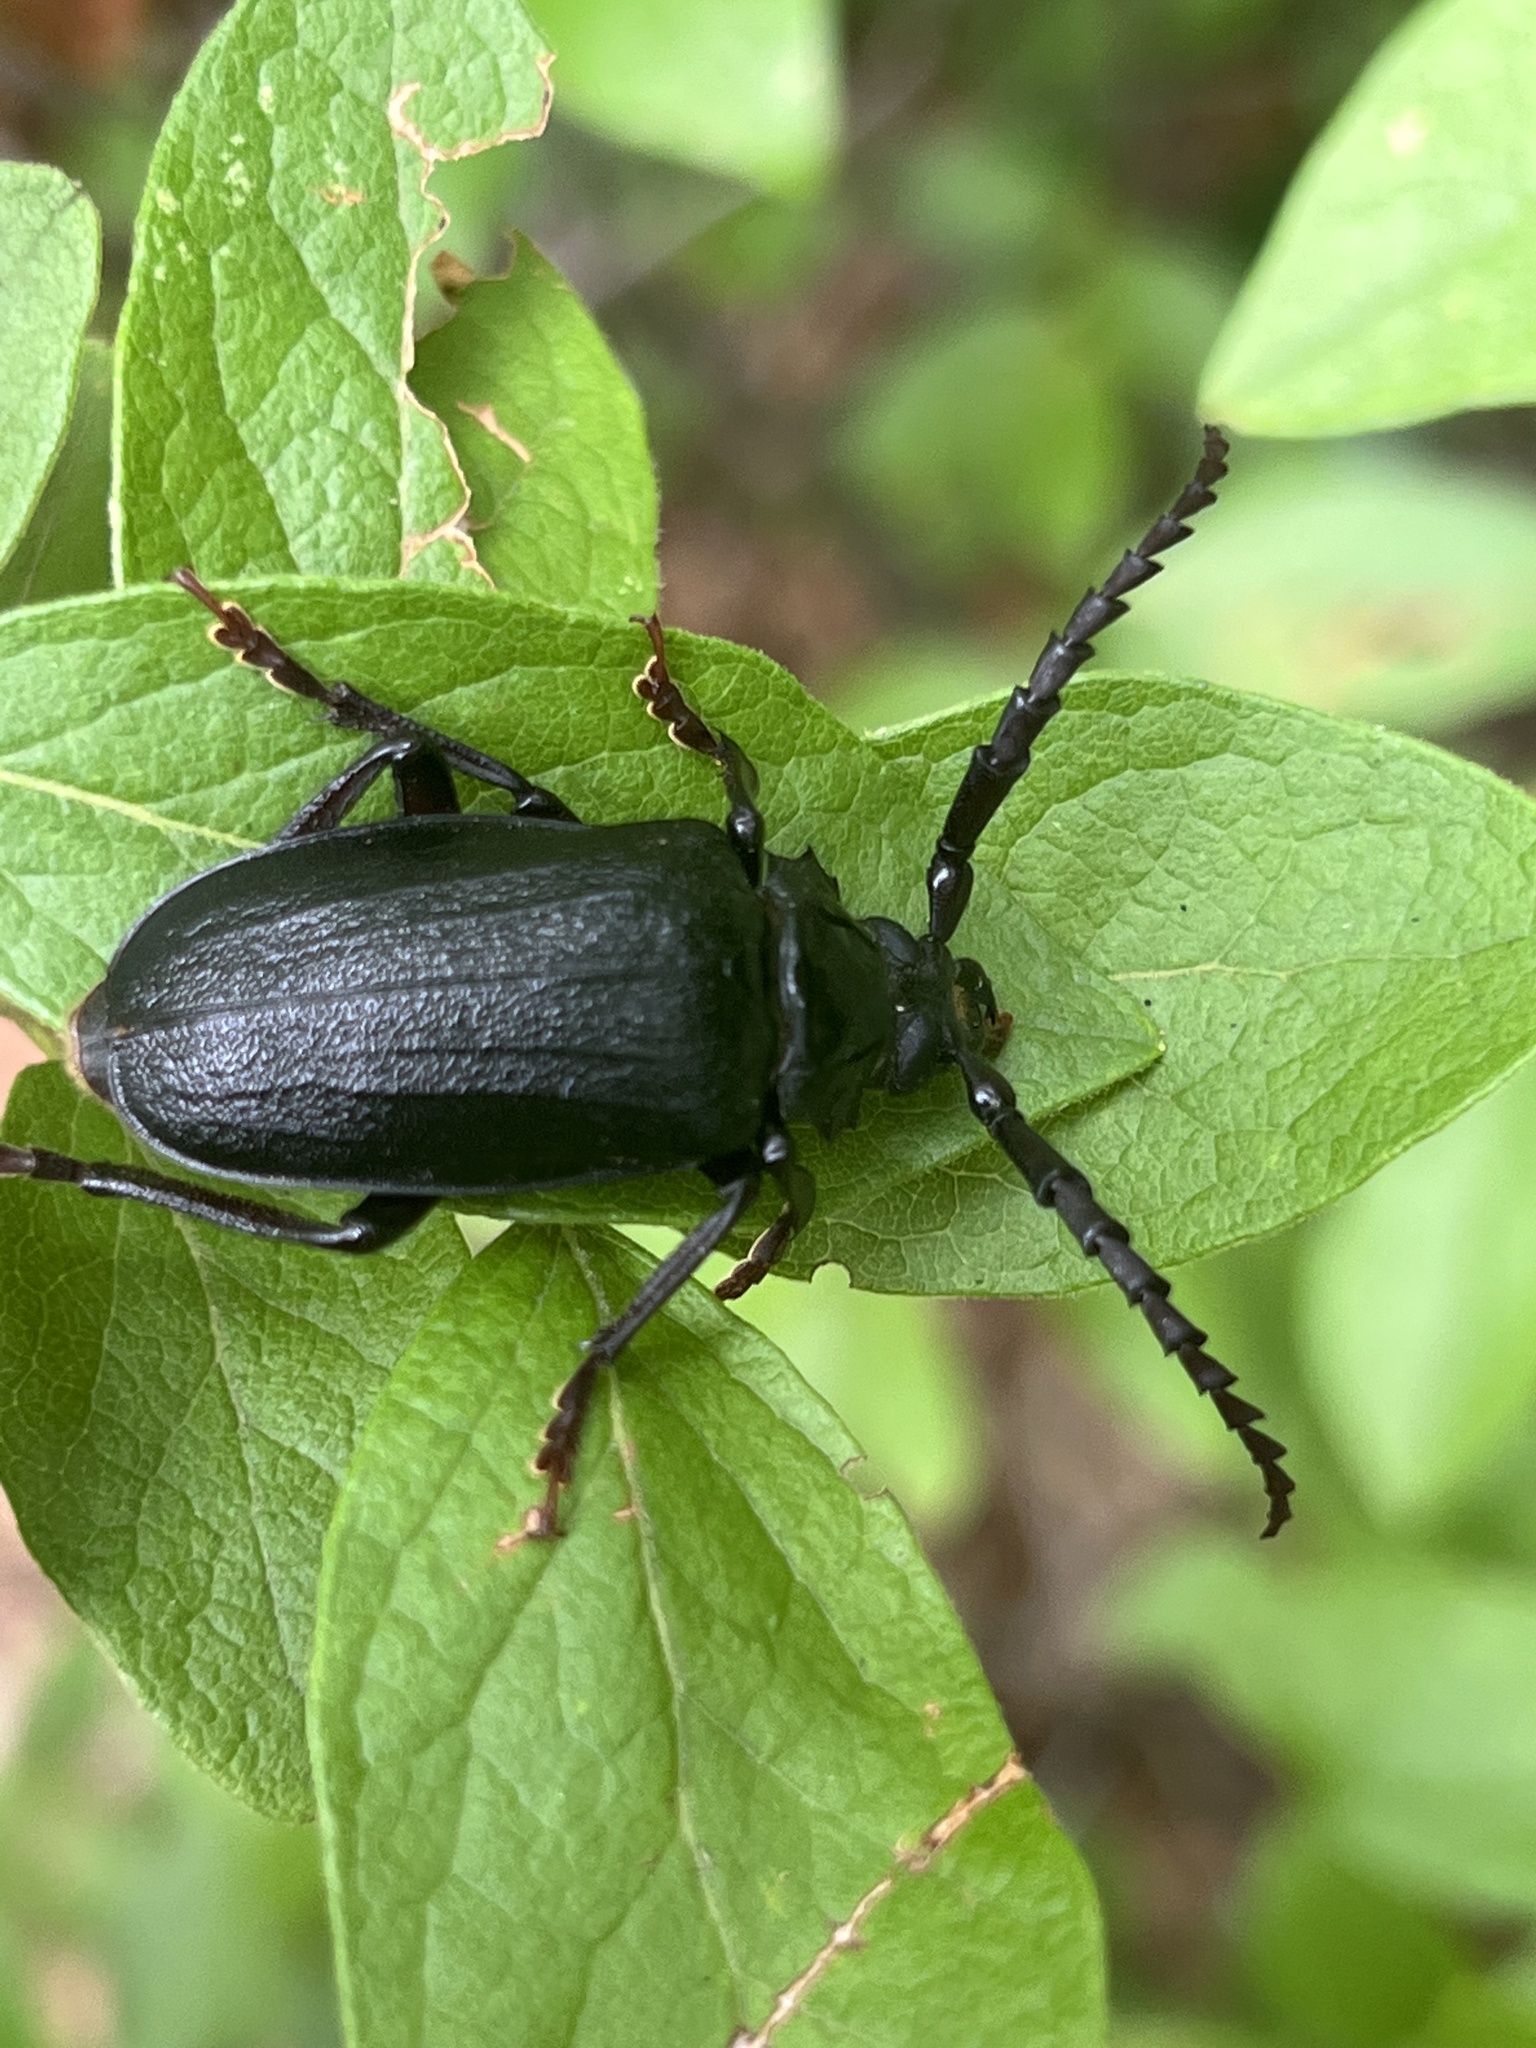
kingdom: Animalia
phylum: Arthropoda
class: Insecta
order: Coleoptera
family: Cerambycidae
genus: Prionus
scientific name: Prionus laticollis
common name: Broad necked prionus
